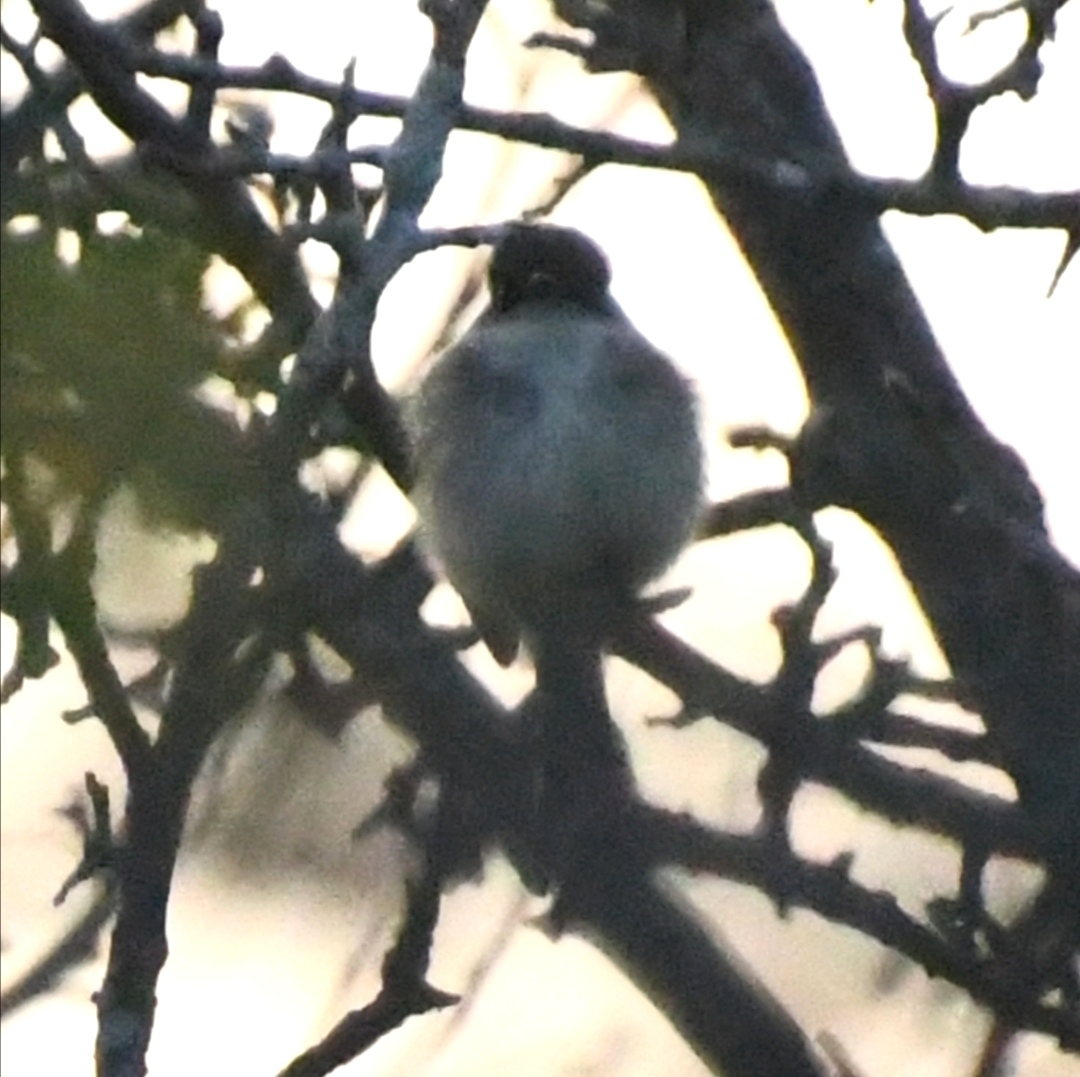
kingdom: Animalia
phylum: Chordata
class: Aves
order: Passeriformes
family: Tyrannidae
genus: Sayornis
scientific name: Sayornis phoebe
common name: Eastern phoebe
